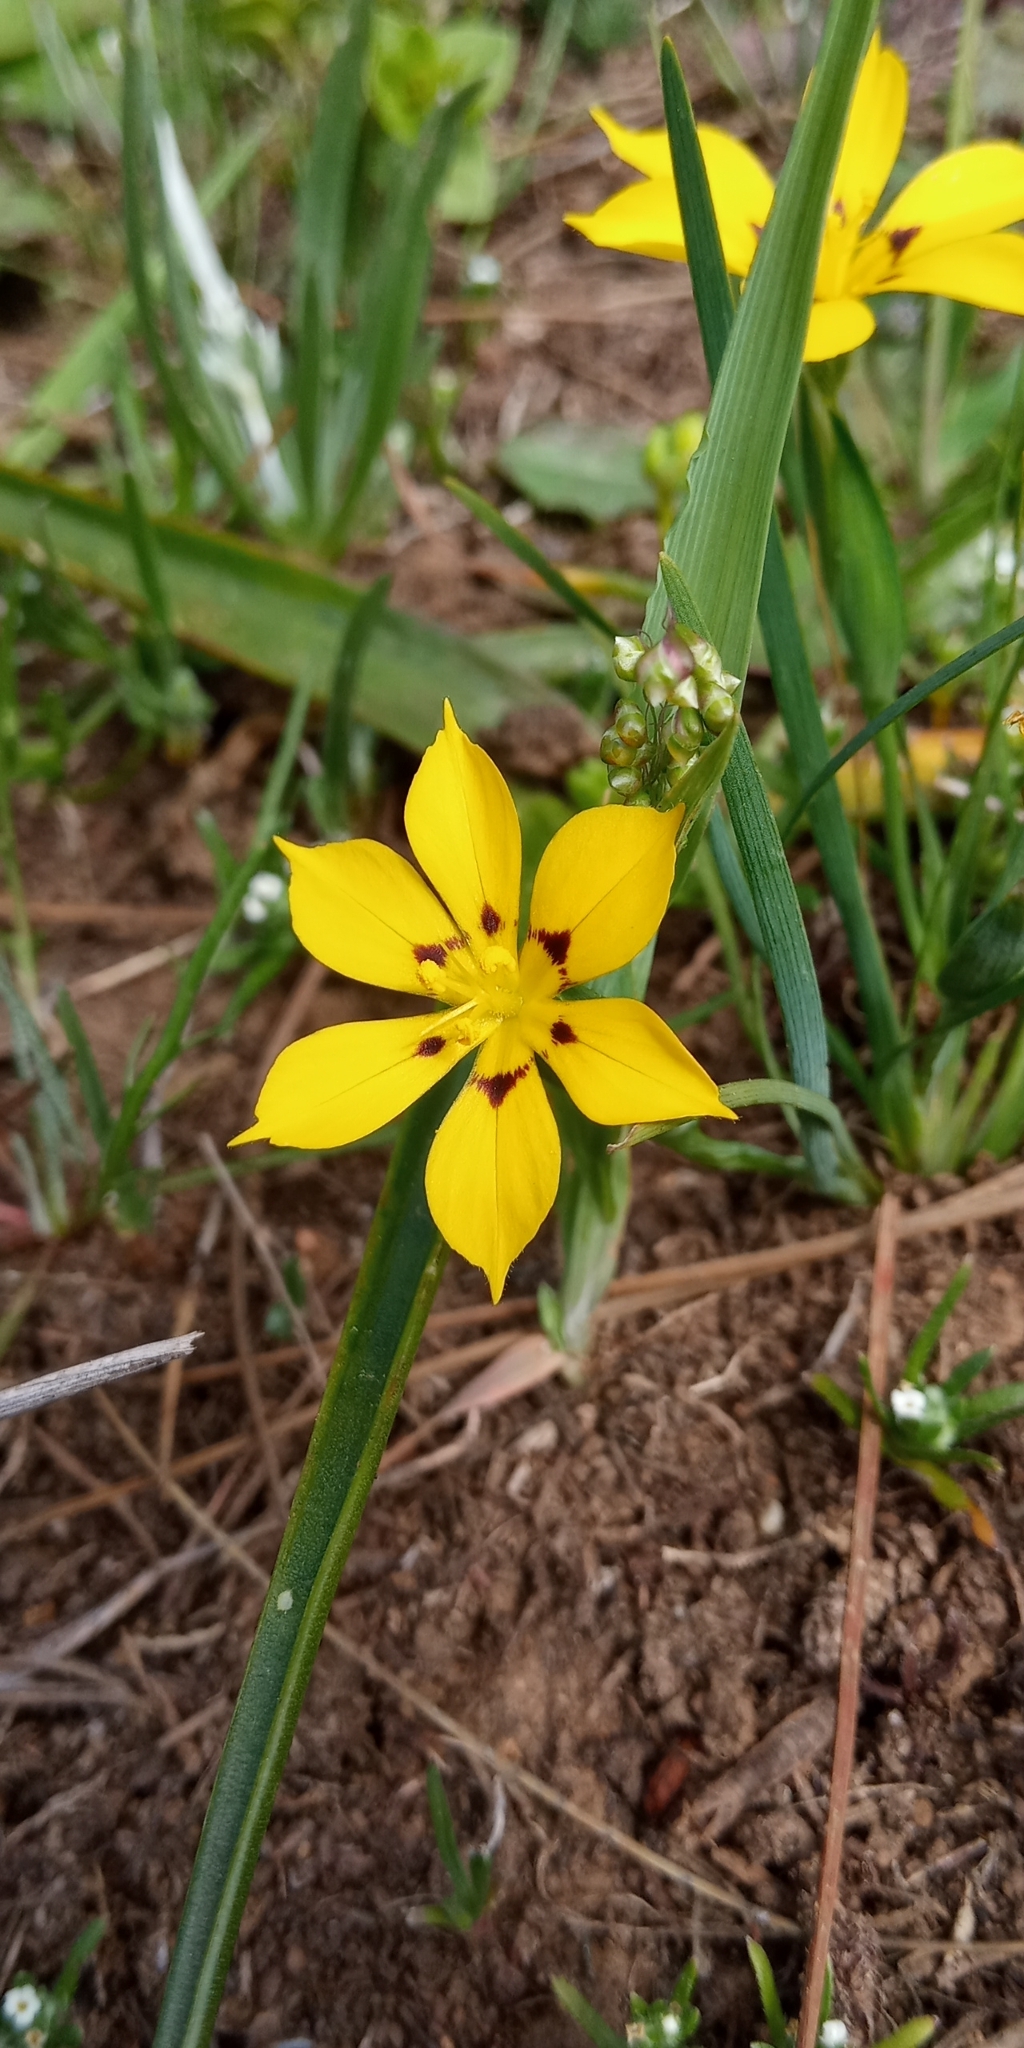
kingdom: Plantae
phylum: Tracheophyta
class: Liliopsida
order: Asparagales
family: Iridaceae
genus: Sisyrinchium
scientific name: Sisyrinchium graminifolium
